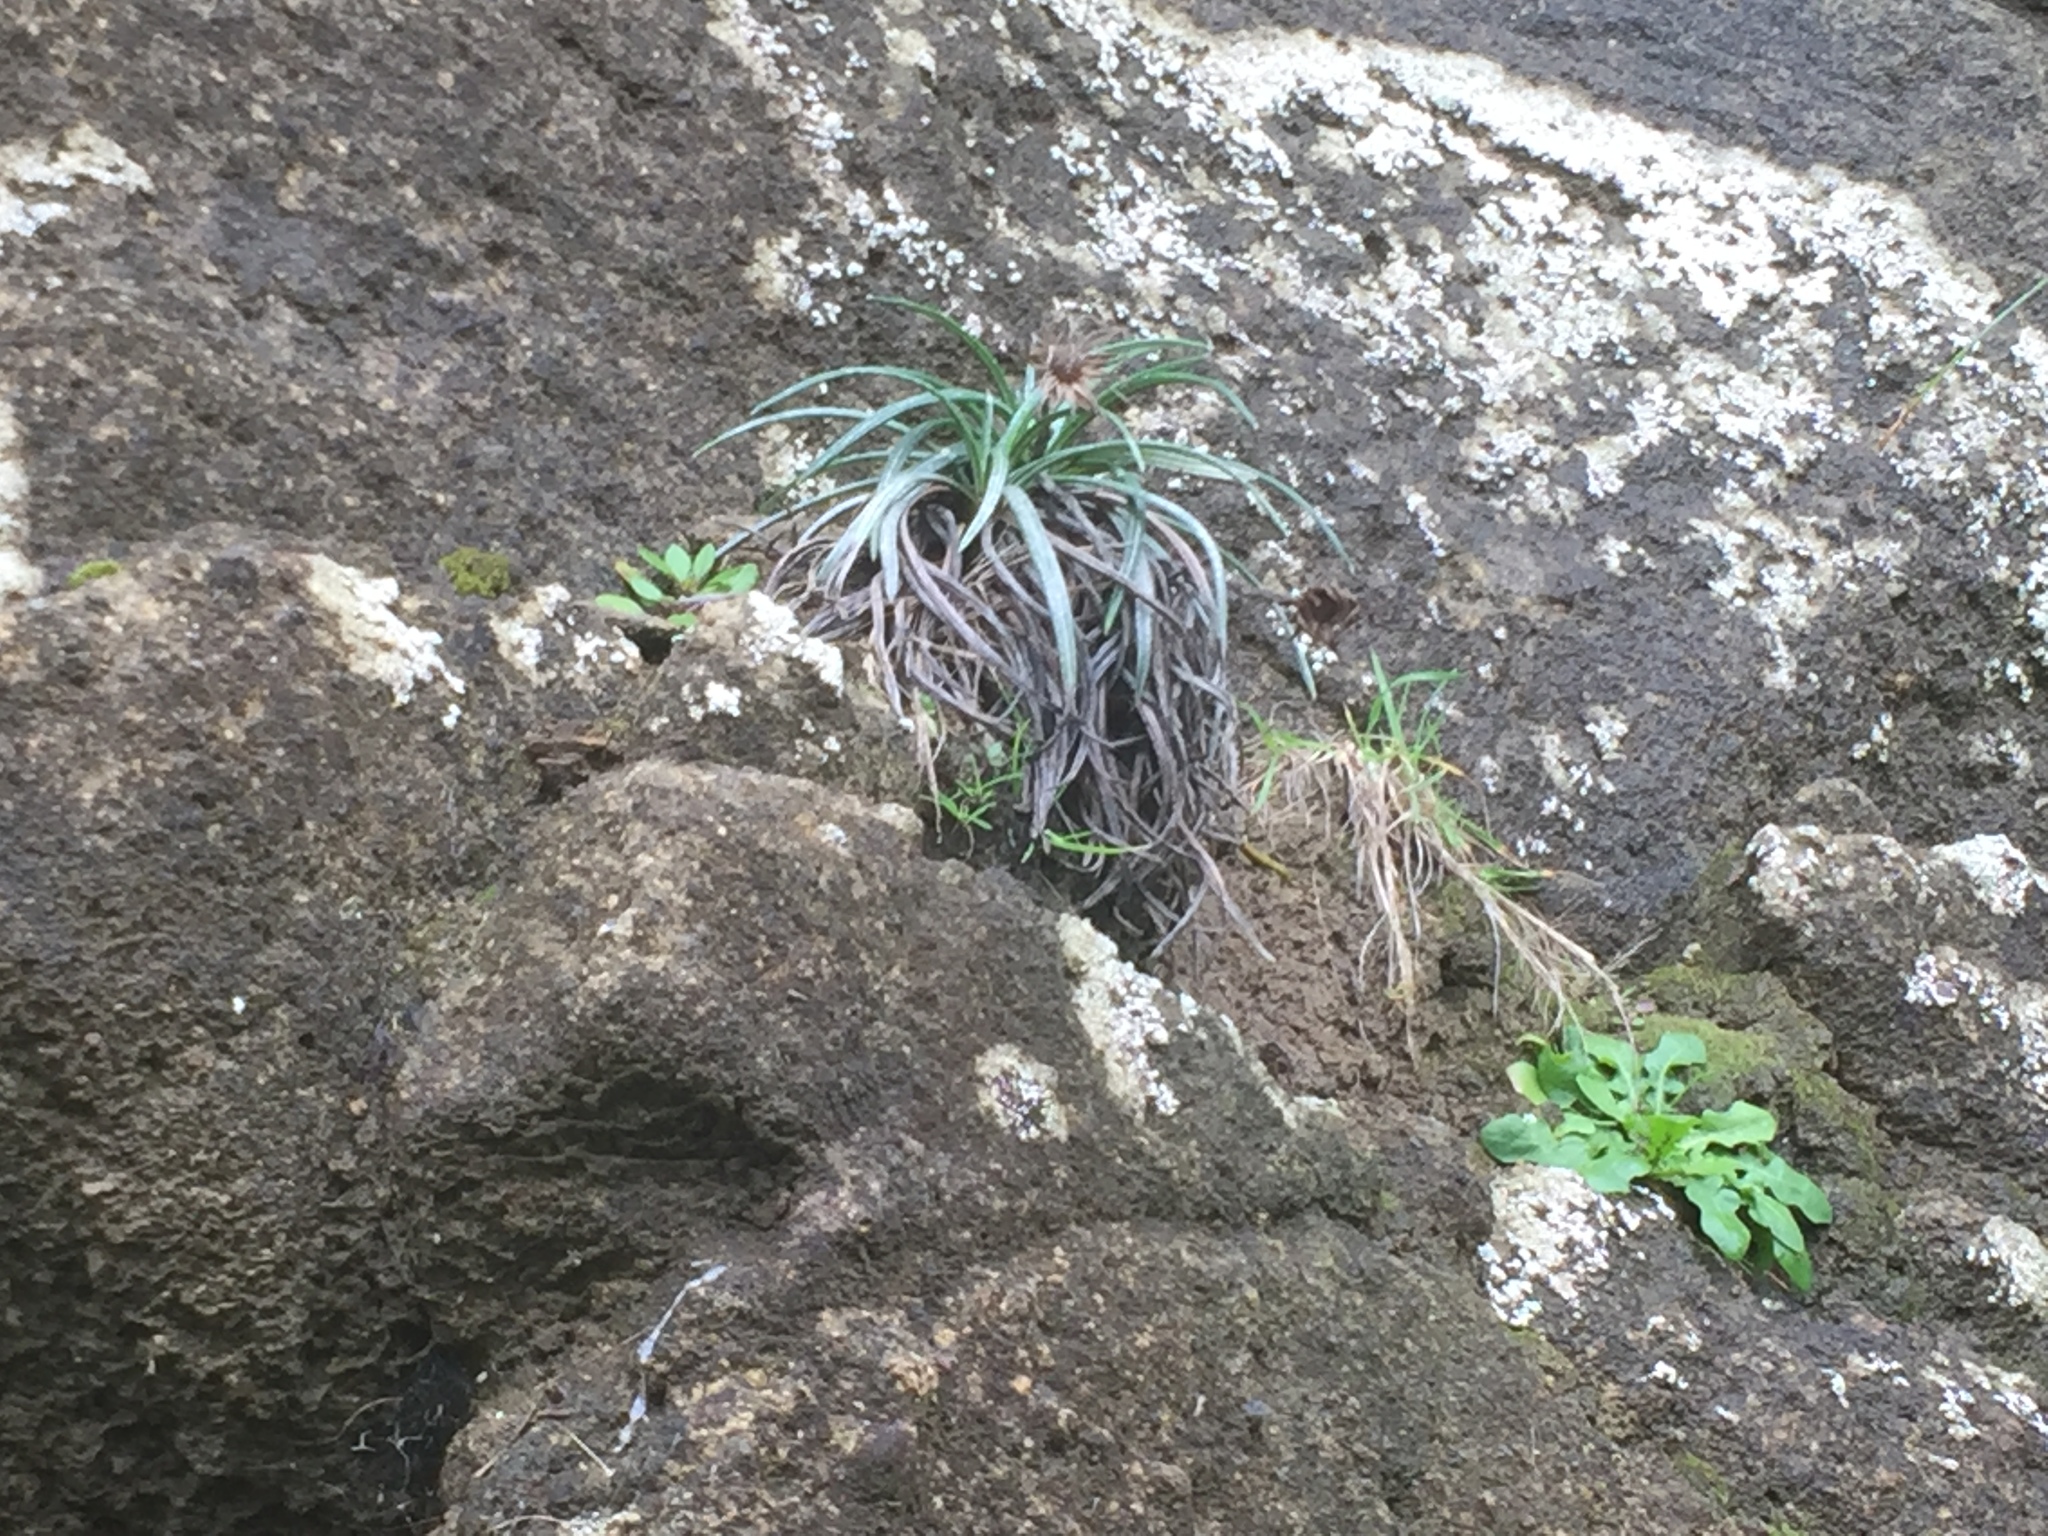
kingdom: Plantae
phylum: Tracheophyta
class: Magnoliopsida
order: Asterales
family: Asteraceae
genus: Celmisia
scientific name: Celmisia major
